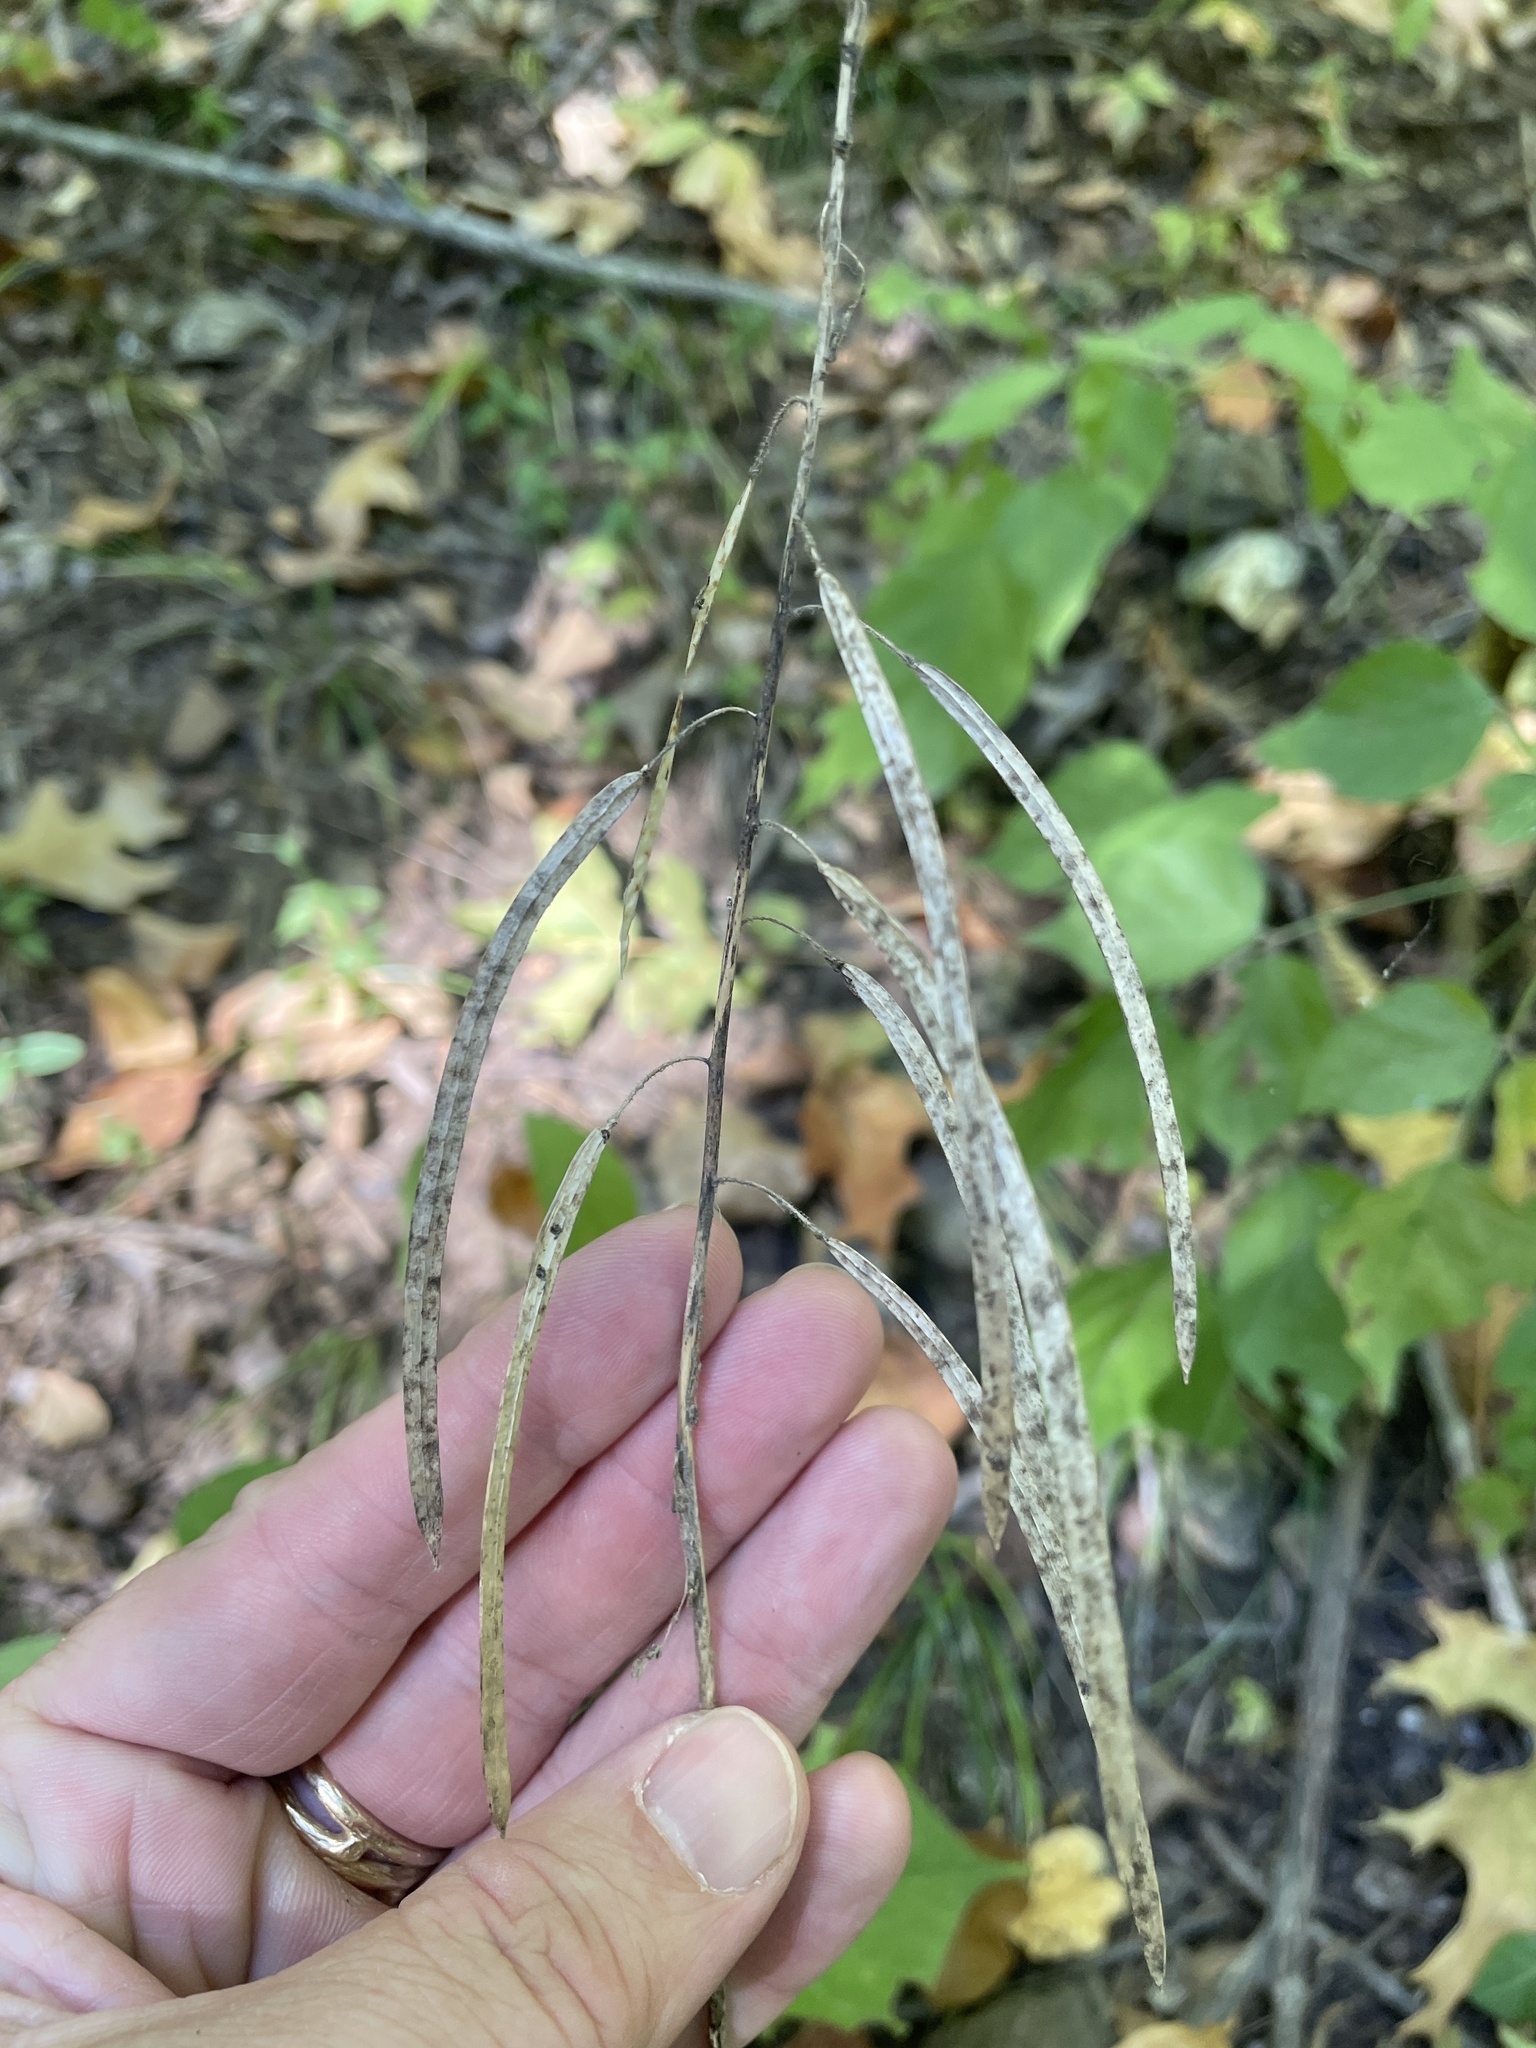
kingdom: Plantae
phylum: Tracheophyta
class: Magnoliopsida
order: Brassicales
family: Brassicaceae
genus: Borodinia
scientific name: Borodinia laevigata
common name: Smooth rockcress
